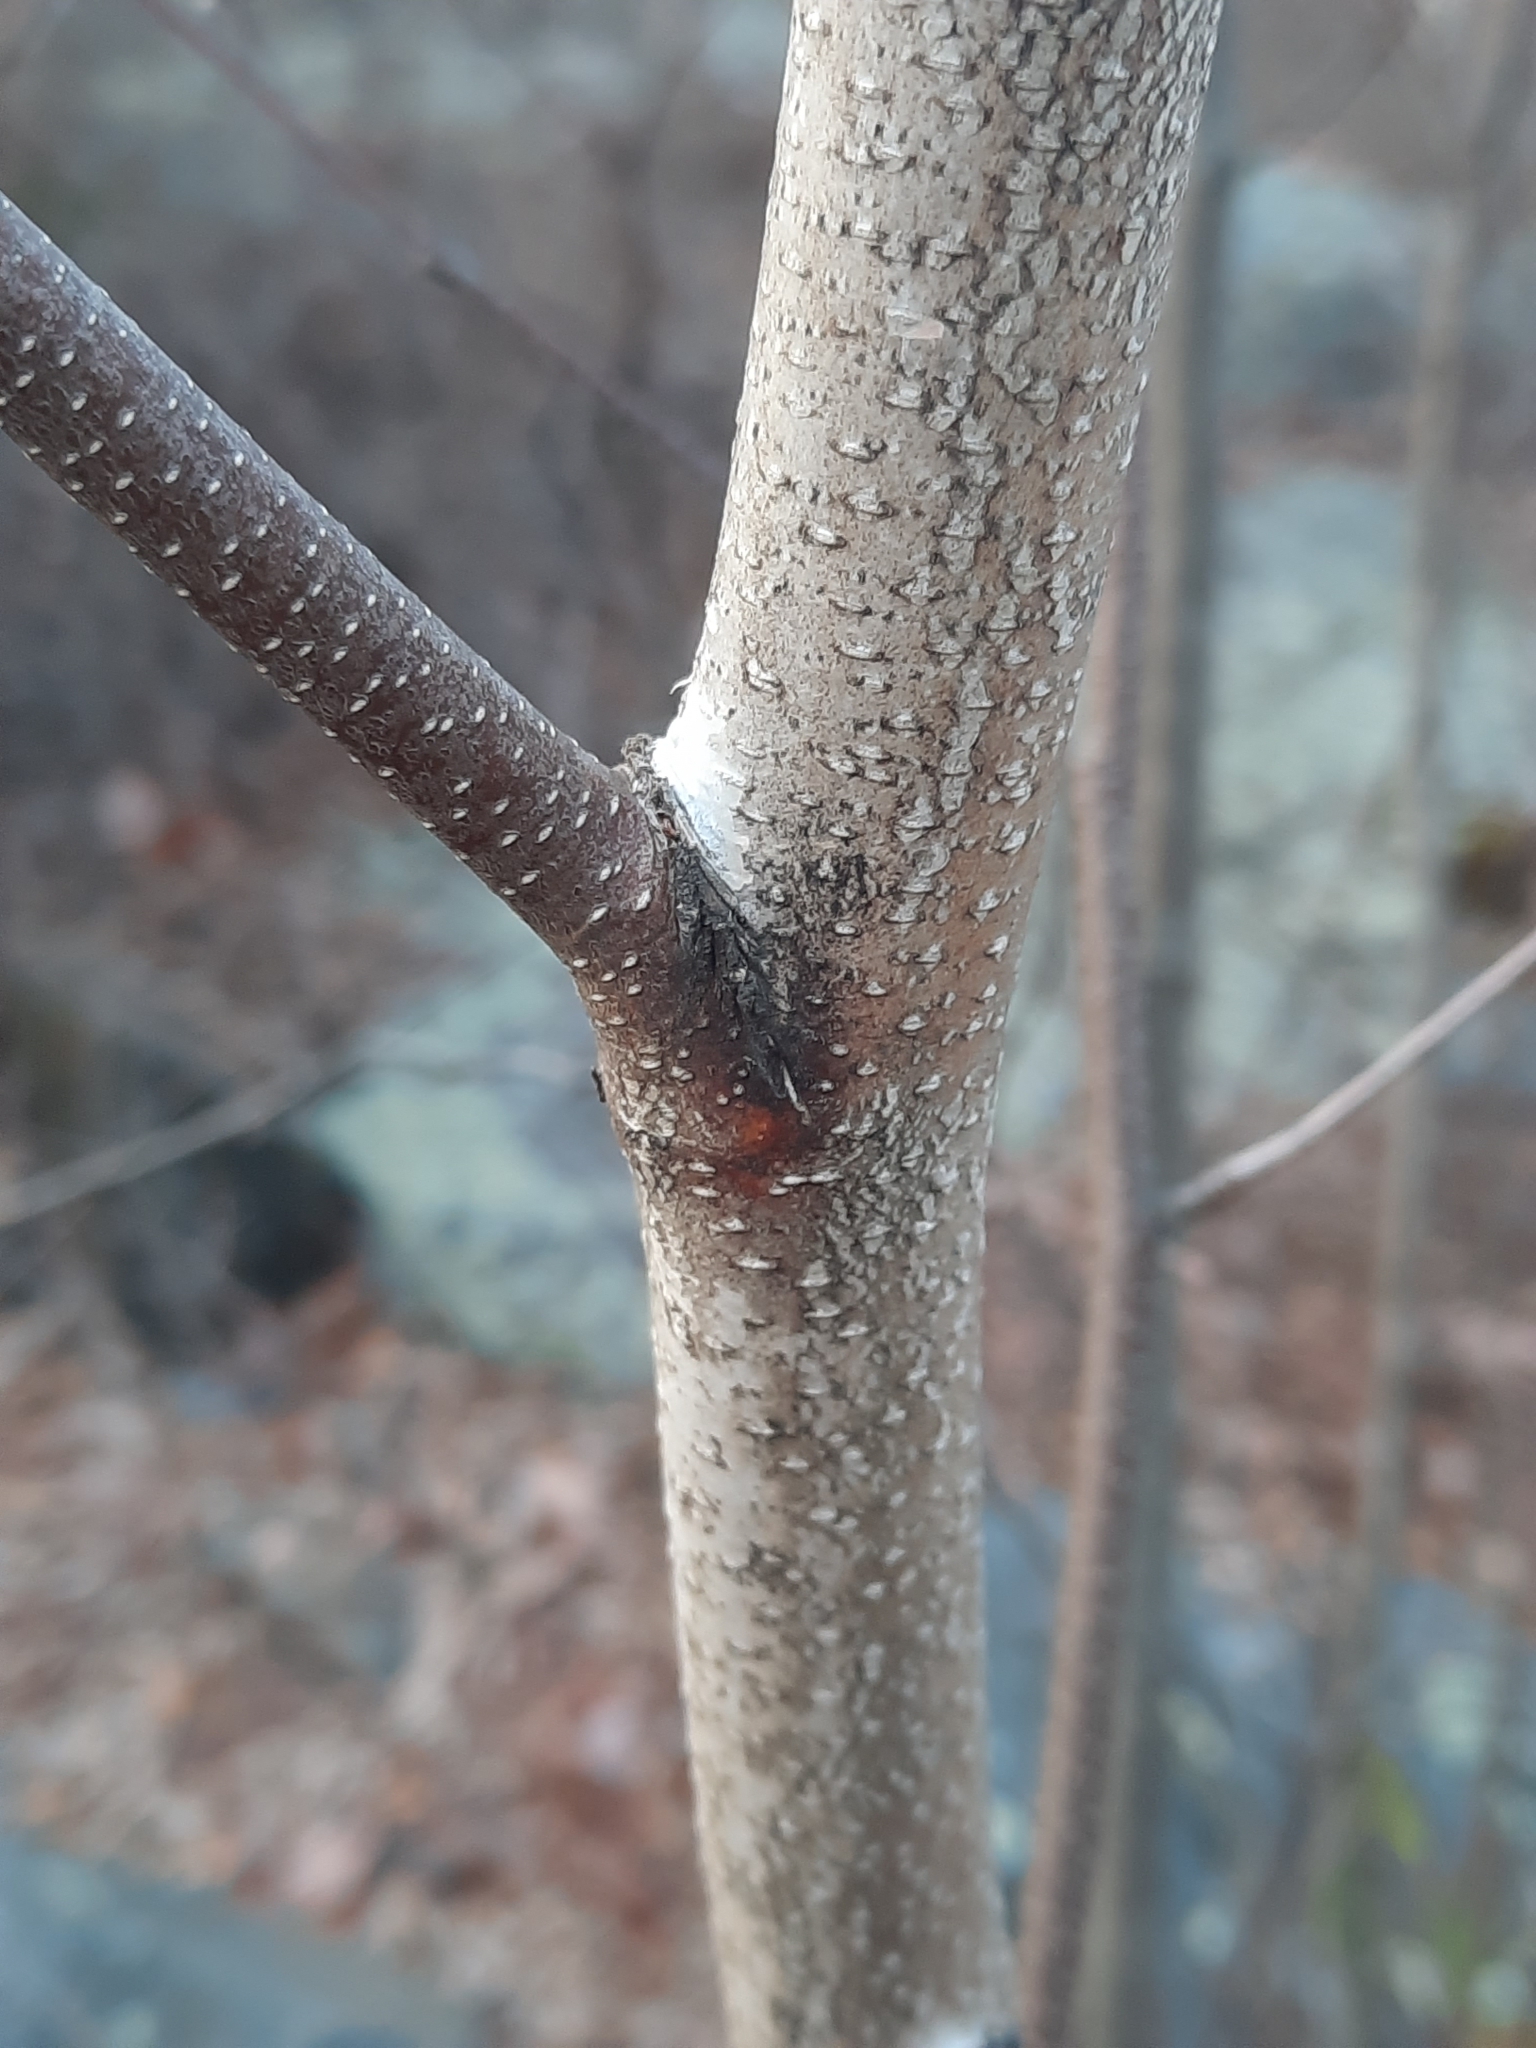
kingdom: Plantae
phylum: Tracheophyta
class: Magnoliopsida
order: Fagales
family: Betulaceae
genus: Betula
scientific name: Betula populifolia
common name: Fire birch
